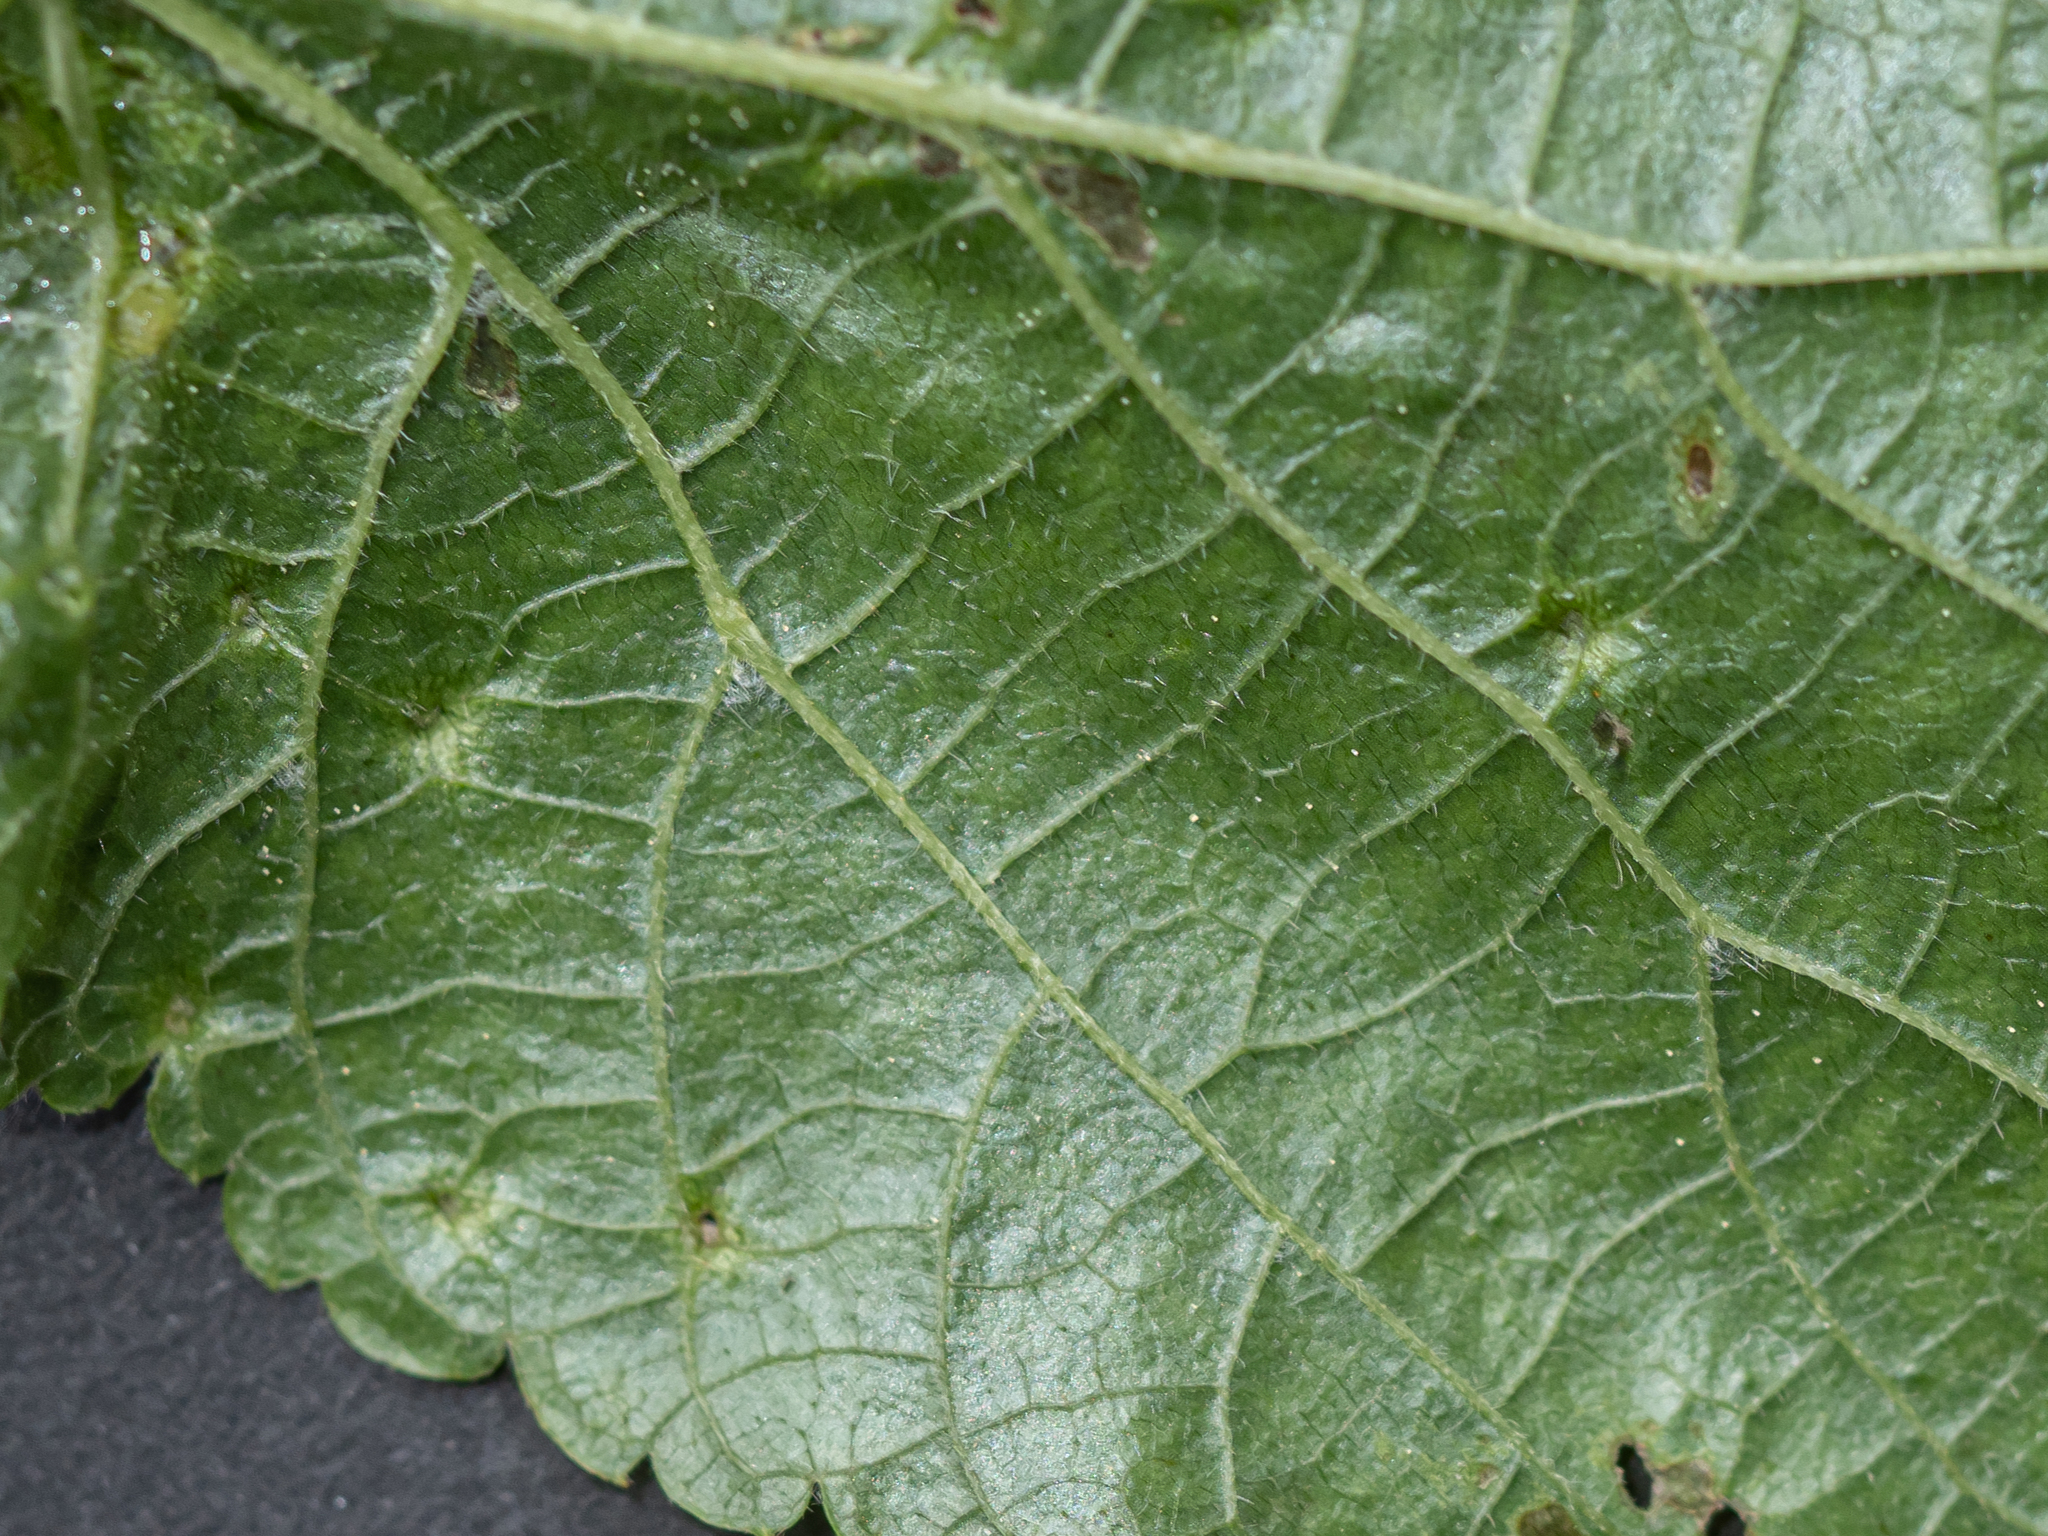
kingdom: Animalia
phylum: Arthropoda
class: Arachnida
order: Trombidiformes
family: Eriophyidae
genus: Eriophyes
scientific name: Eriophyes tiliae
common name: Red nail gall mite
